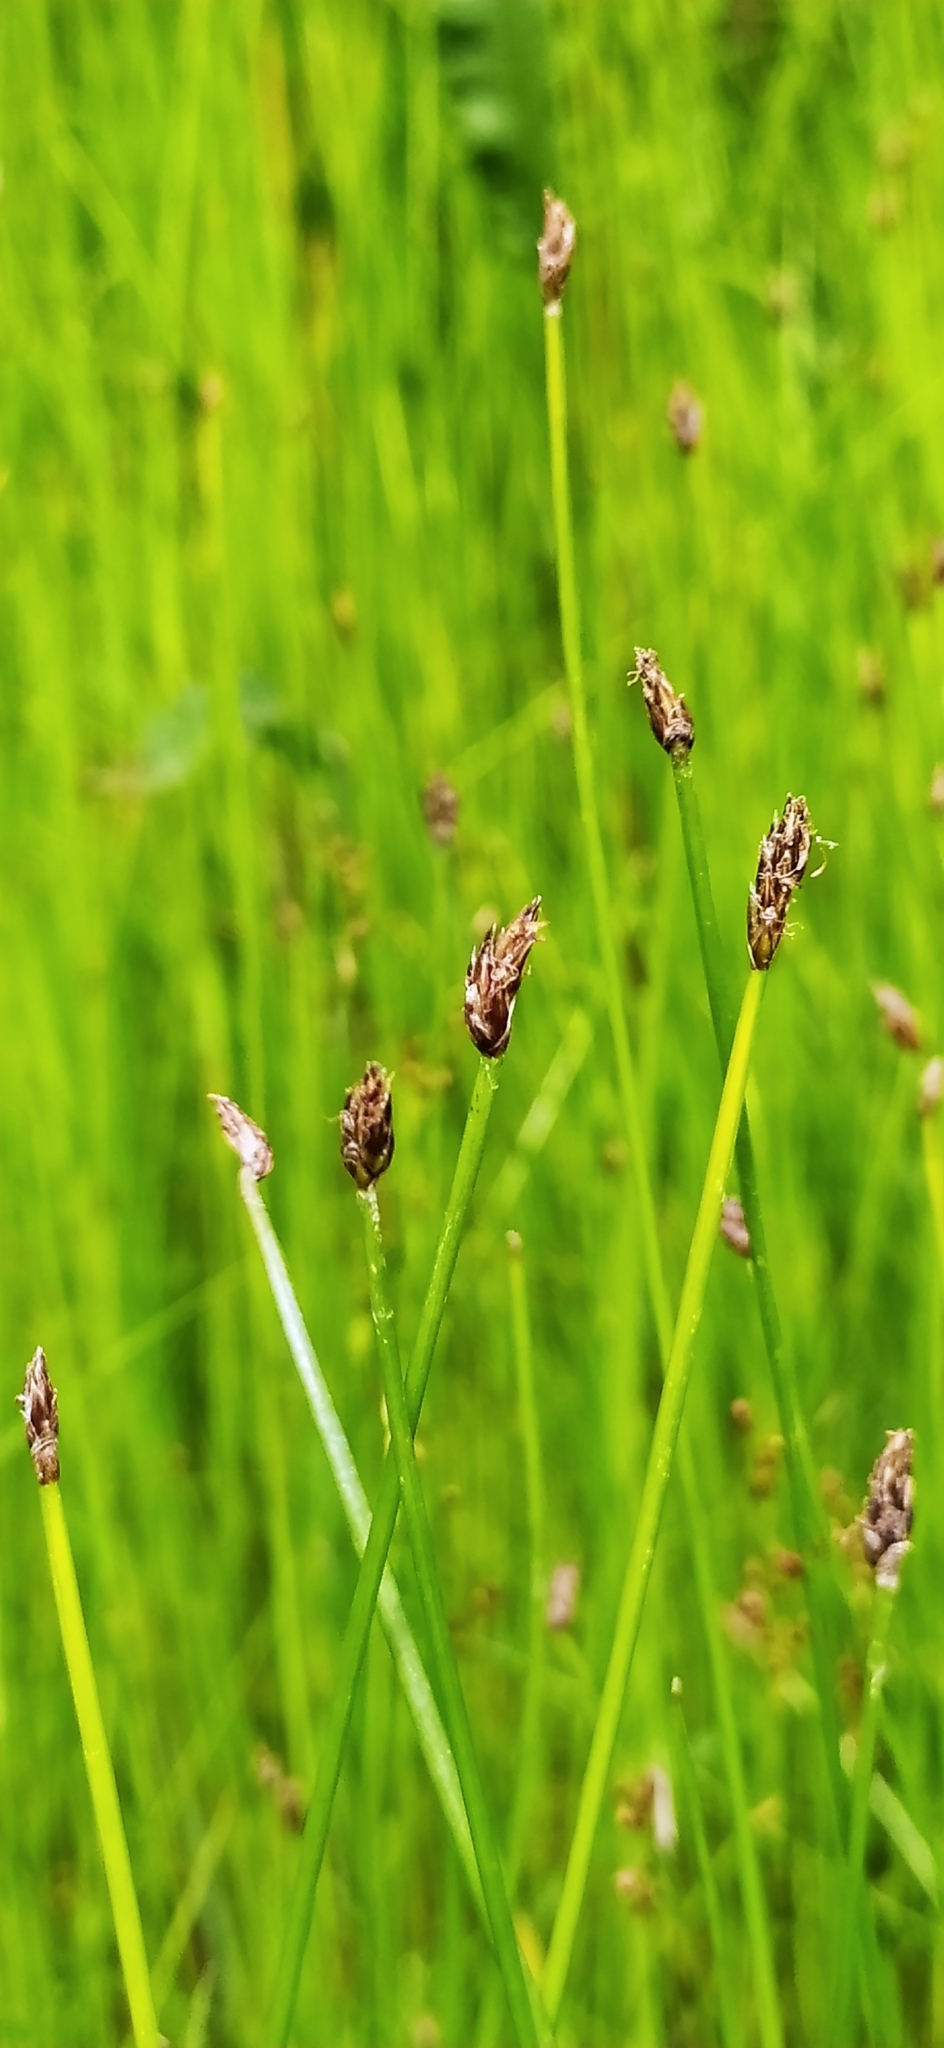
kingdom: Plantae
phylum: Tracheophyta
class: Liliopsida
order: Poales
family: Cyperaceae
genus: Eleocharis
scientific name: Eleocharis palustris
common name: Common spike-rush
